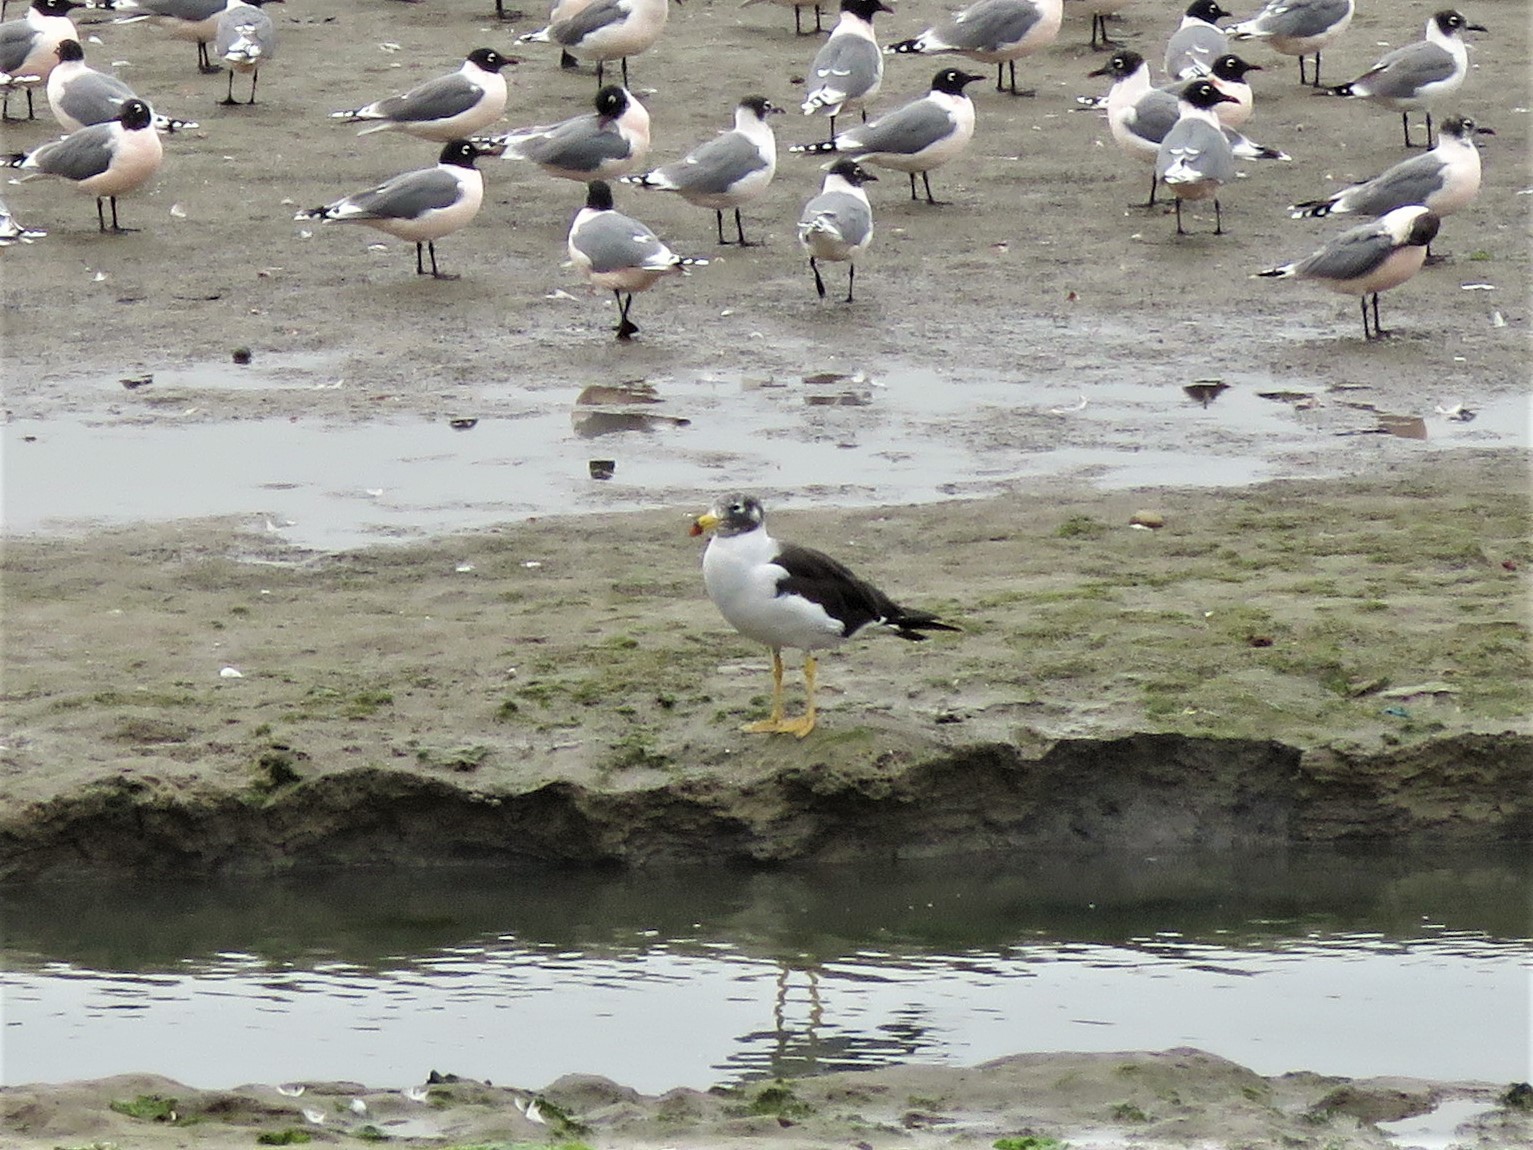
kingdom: Animalia
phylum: Chordata
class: Aves
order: Charadriiformes
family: Laridae
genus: Larus
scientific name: Larus belcheri
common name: Belcher's gull
